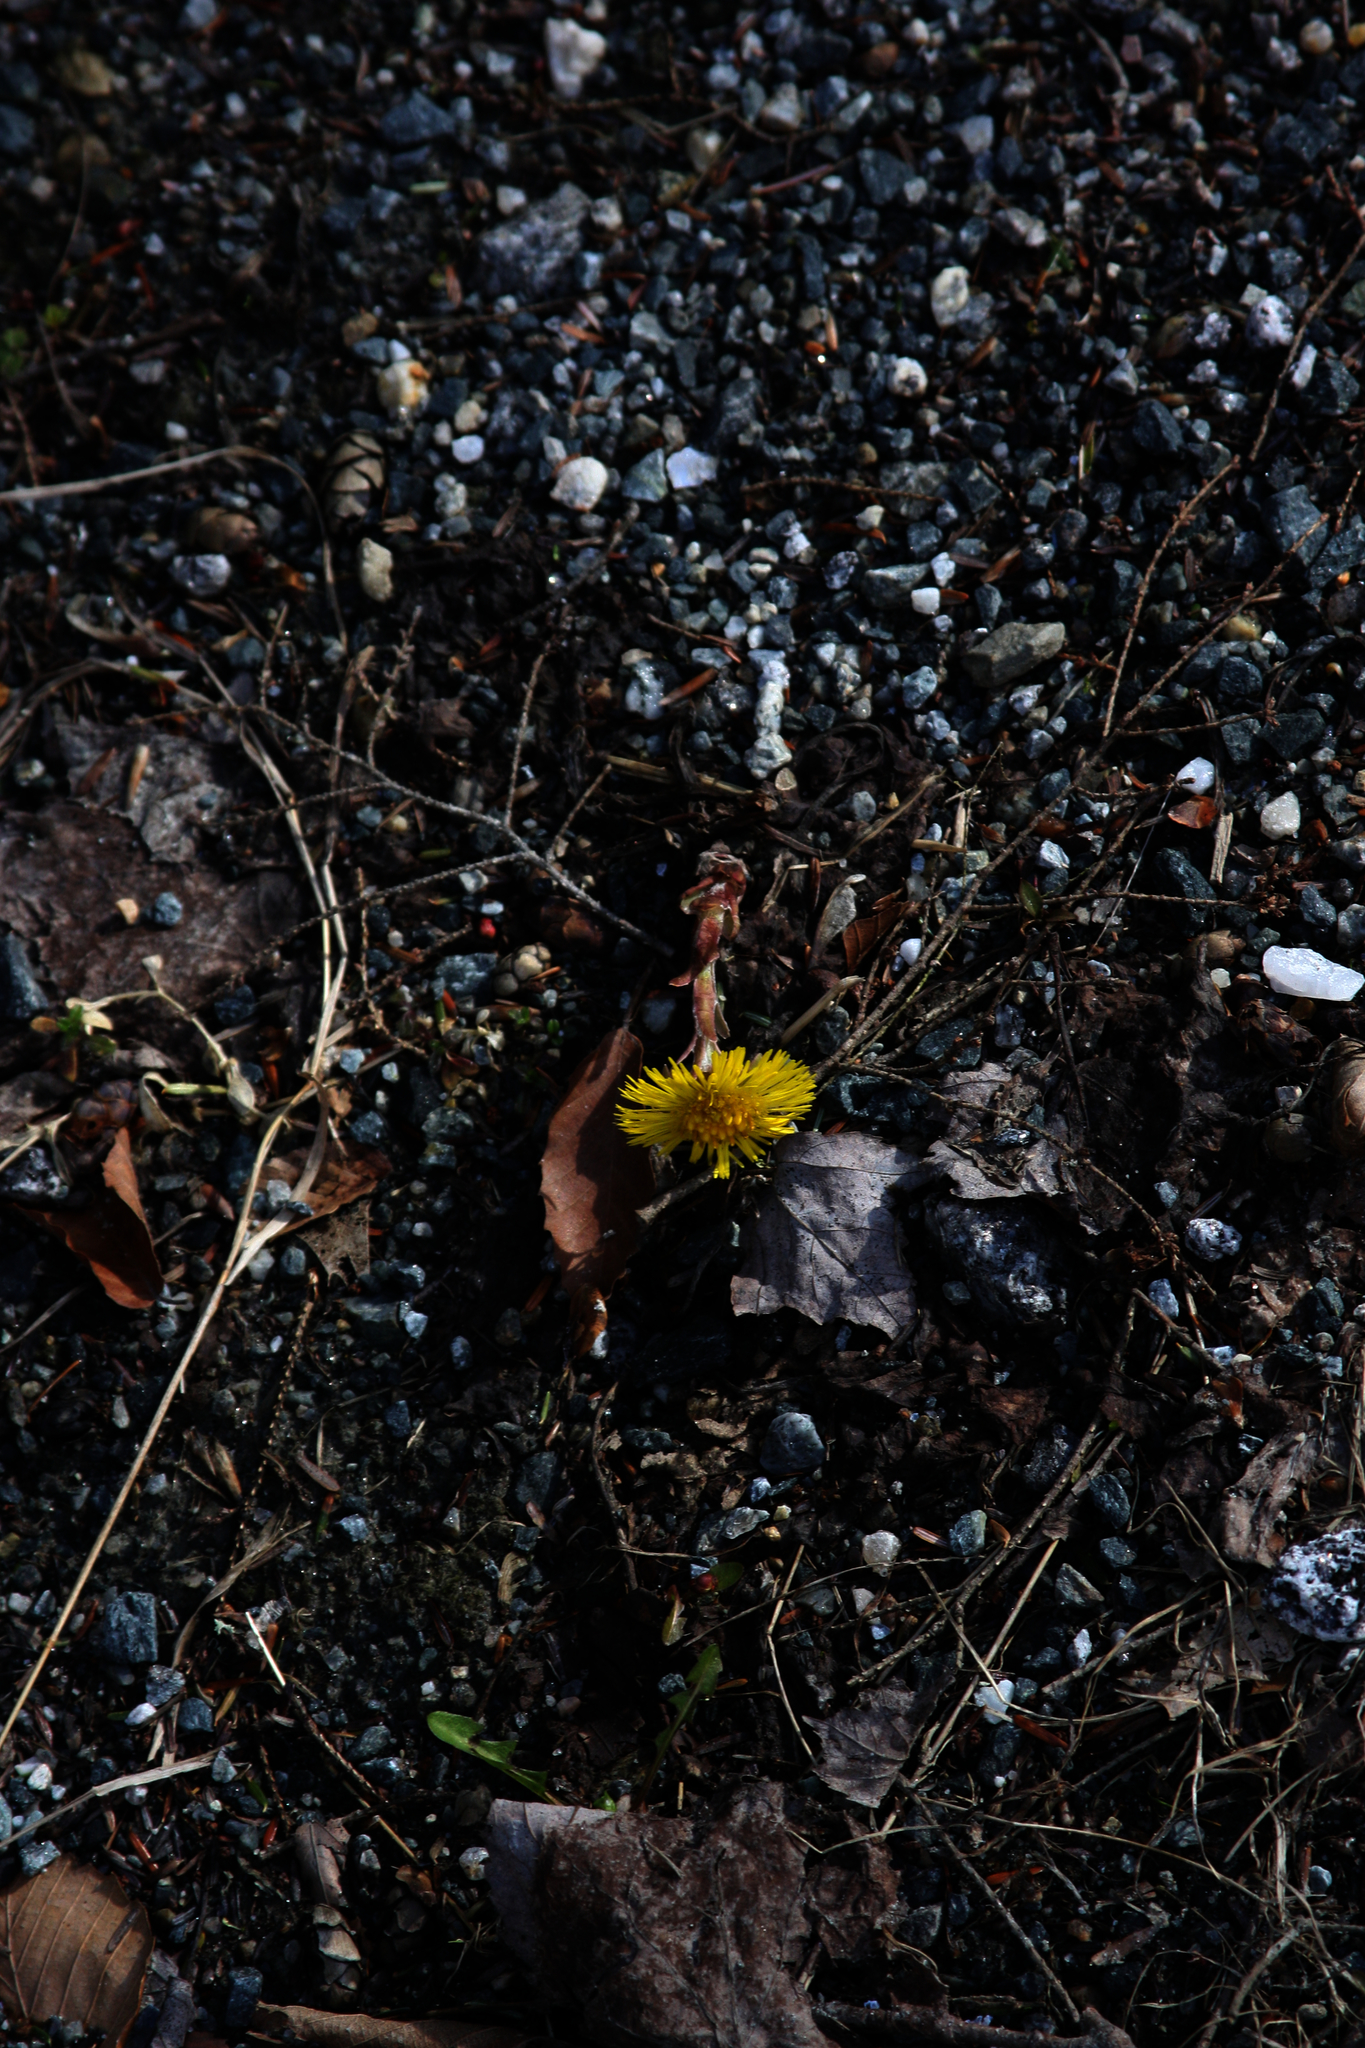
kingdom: Plantae
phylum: Tracheophyta
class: Magnoliopsida
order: Asterales
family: Asteraceae
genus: Tussilago
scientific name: Tussilago farfara
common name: Coltsfoot
